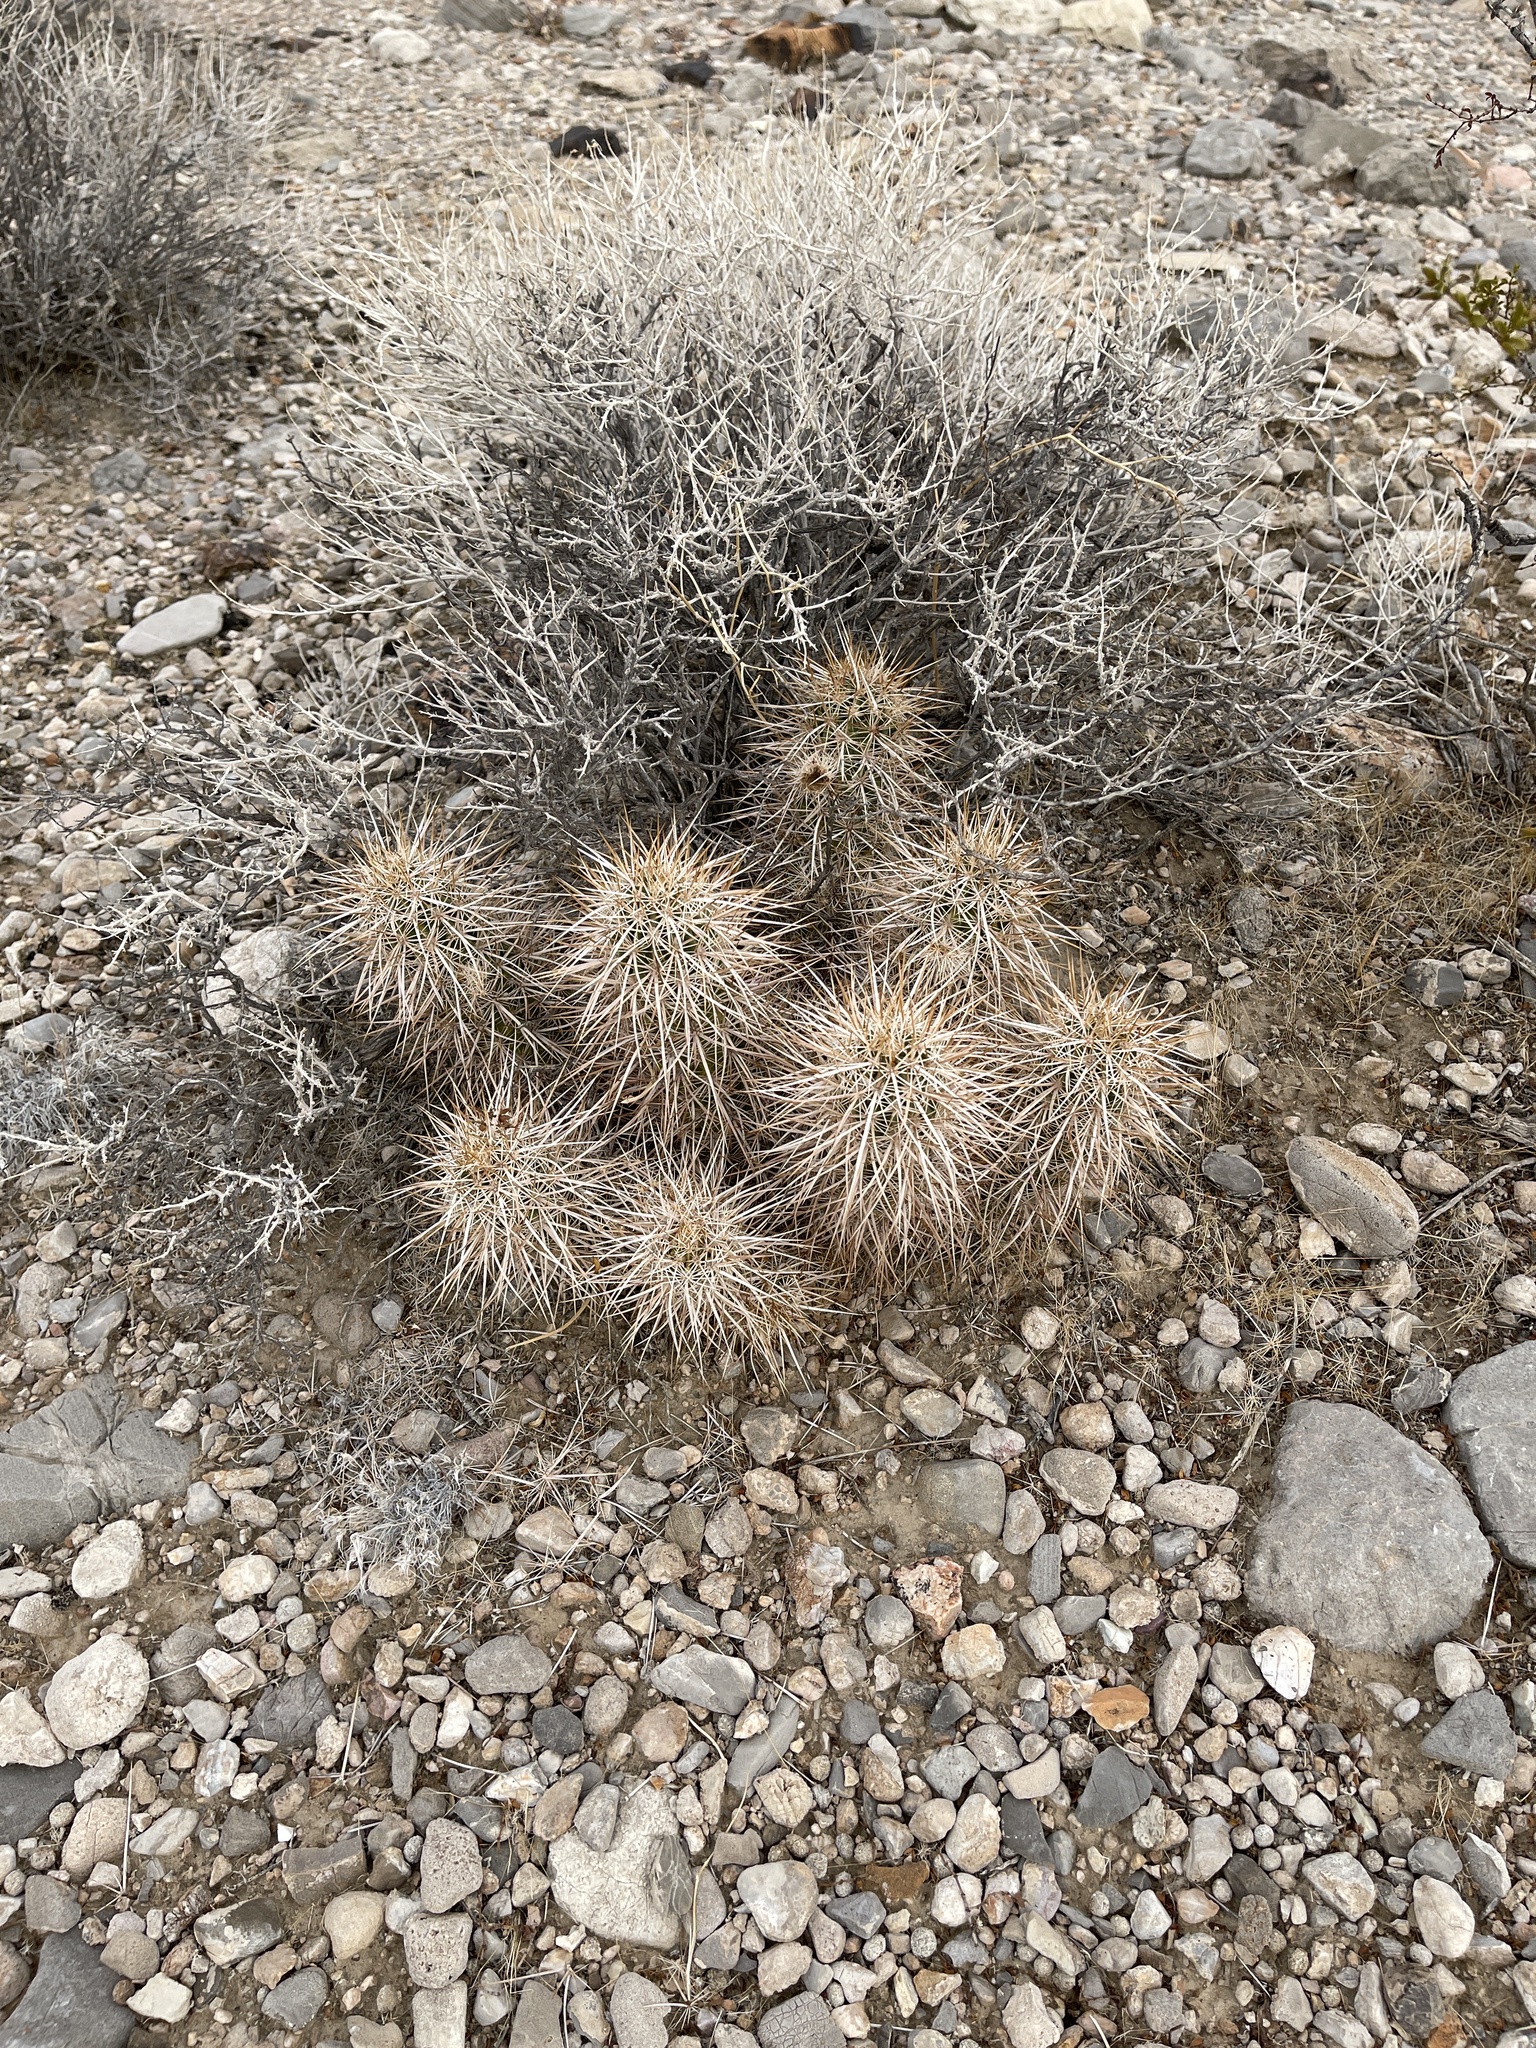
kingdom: Plantae
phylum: Tracheophyta
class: Magnoliopsida
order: Caryophyllales
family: Cactaceae
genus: Echinocereus
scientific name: Echinocereus engelmannii
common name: Engelmann's hedgehog cactus
